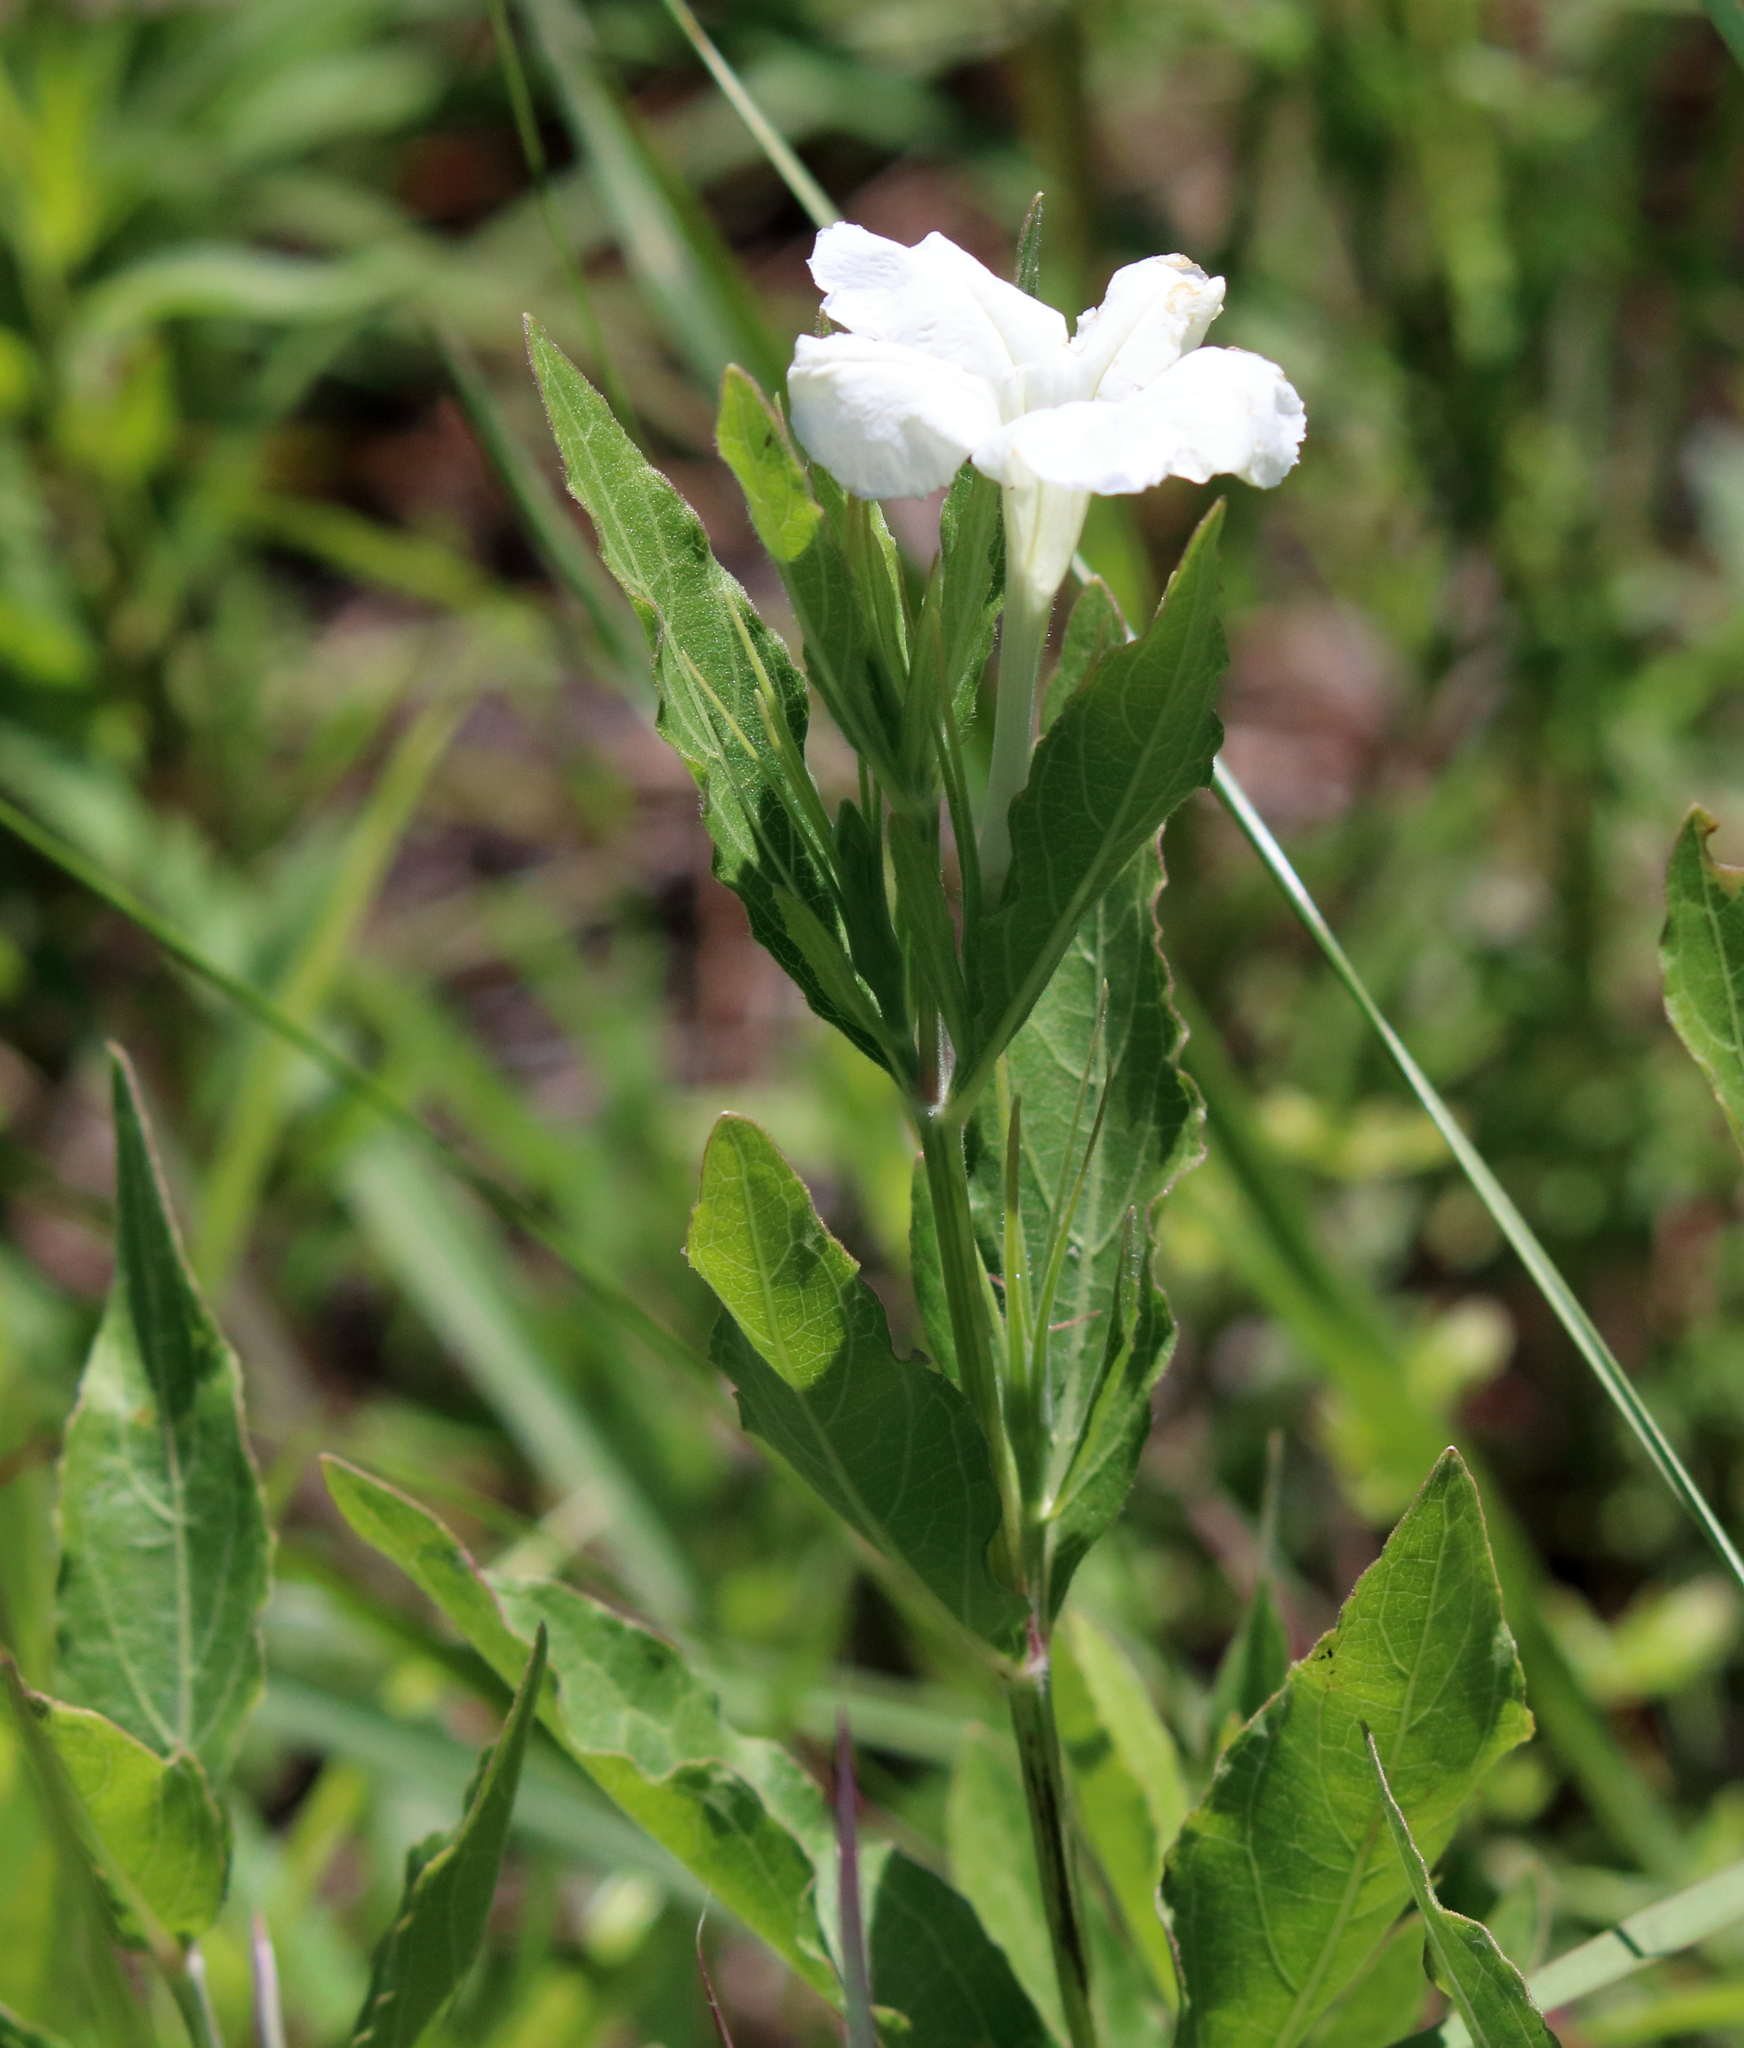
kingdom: Plantae
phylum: Tracheophyta
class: Magnoliopsida
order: Lamiales
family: Acanthaceae
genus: Ruellia
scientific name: Ruellia noctiflora
